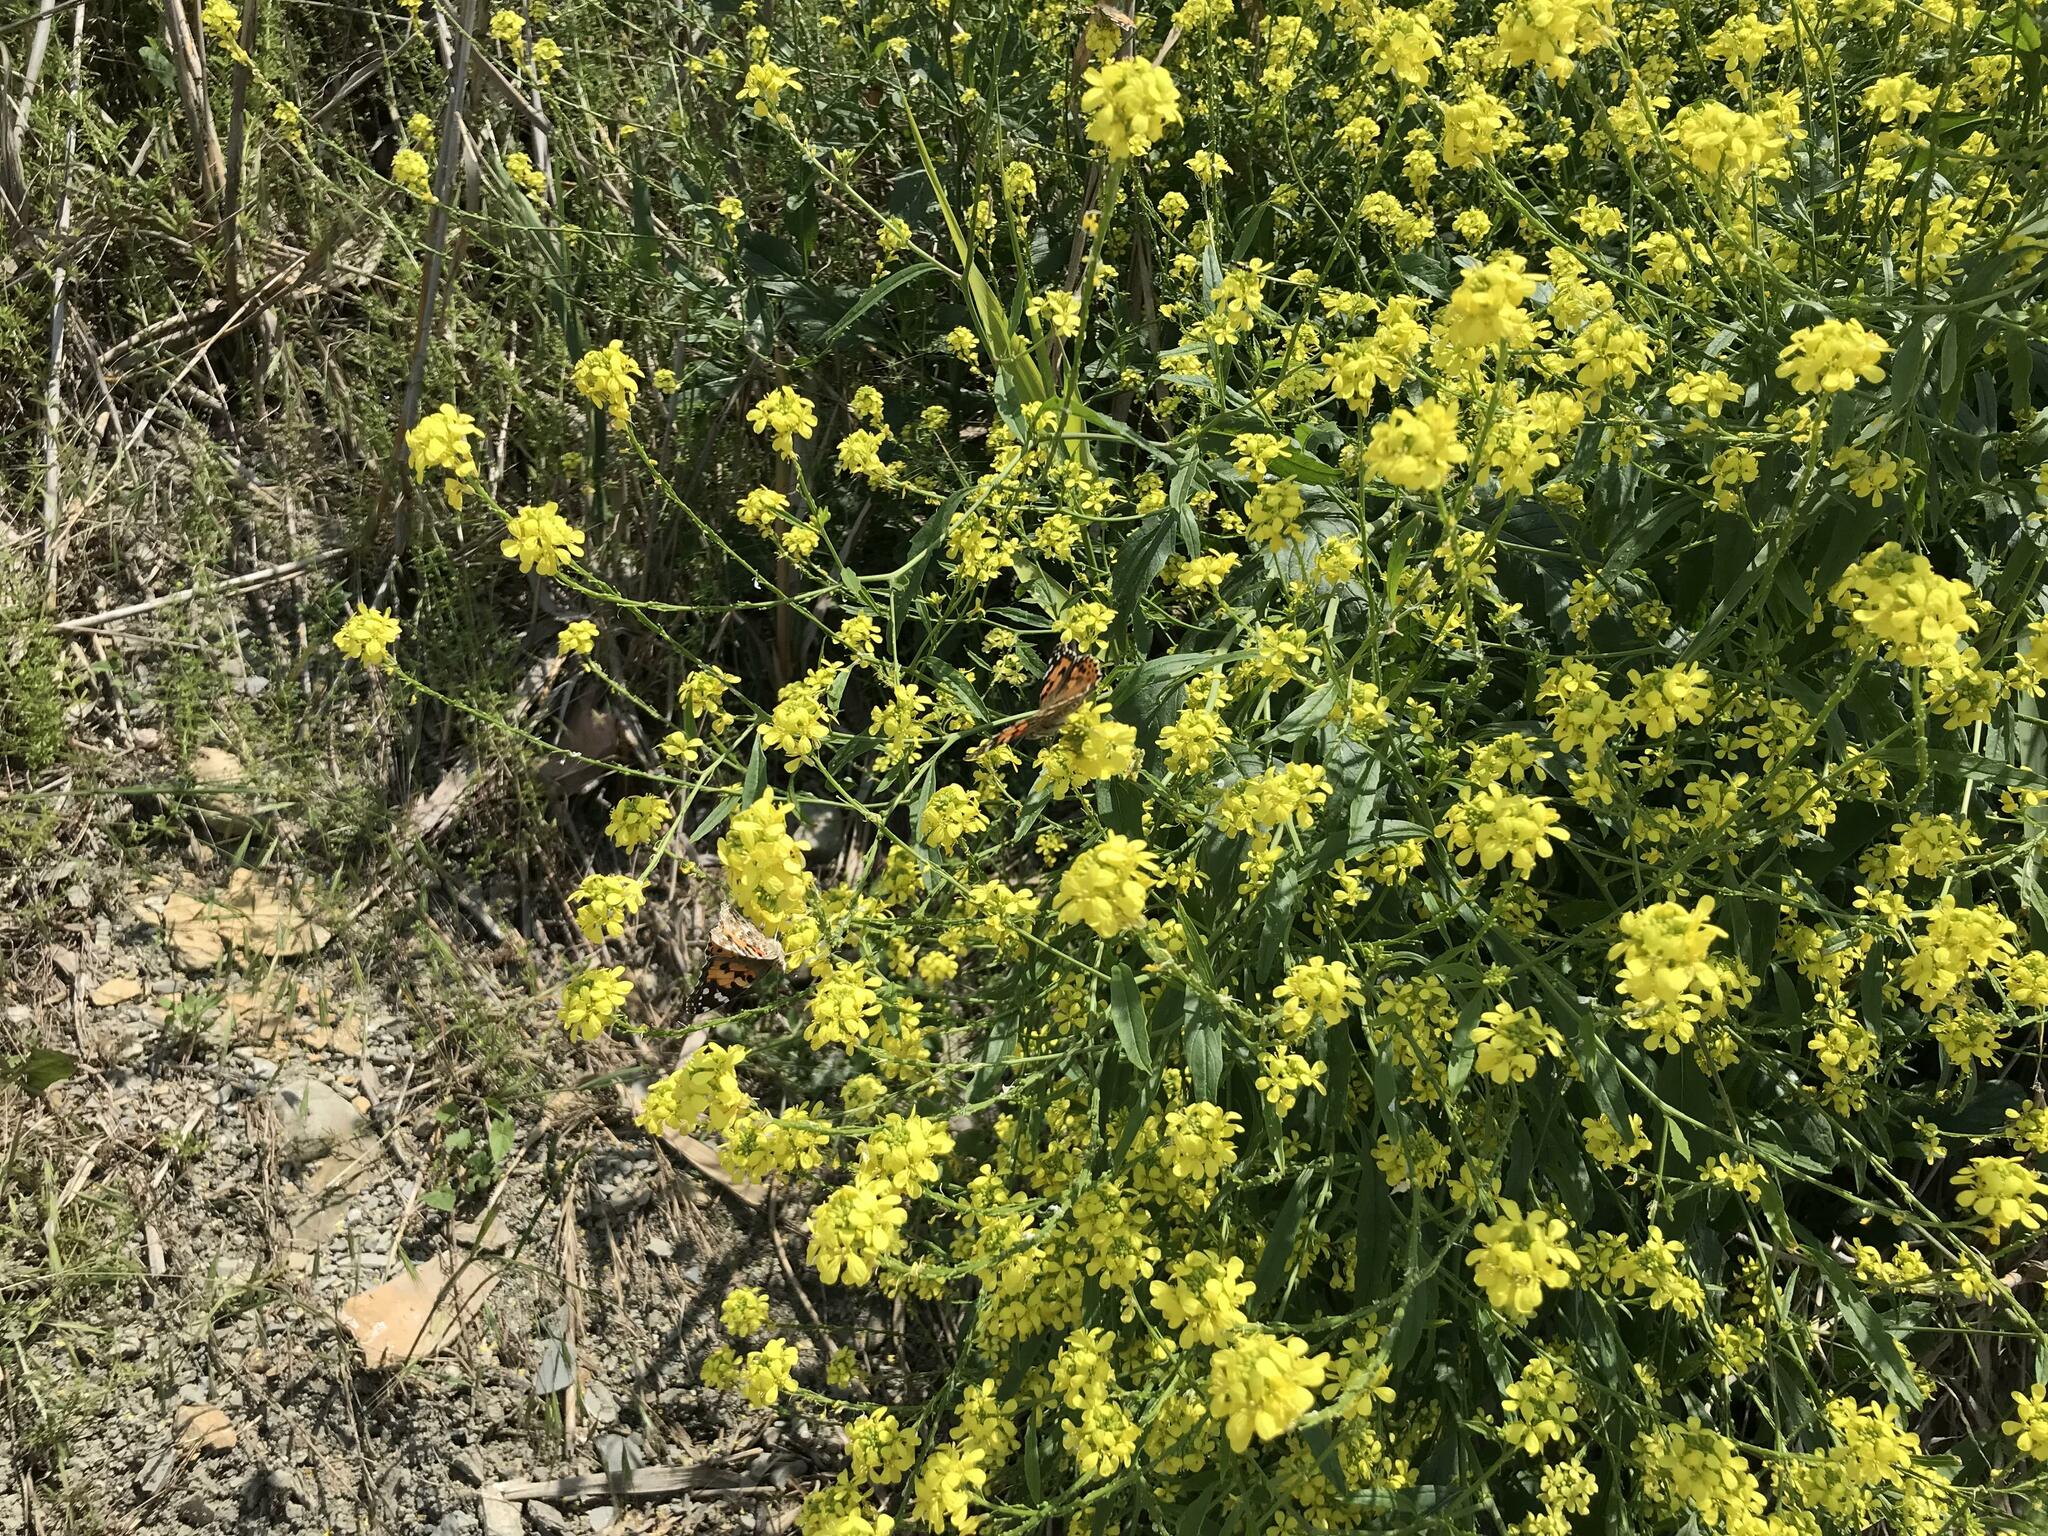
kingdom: Plantae
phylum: Tracheophyta
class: Magnoliopsida
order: Brassicales
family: Brassicaceae
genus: Rapistrum
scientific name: Rapistrum rugosum
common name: Annual bastardcabbage
